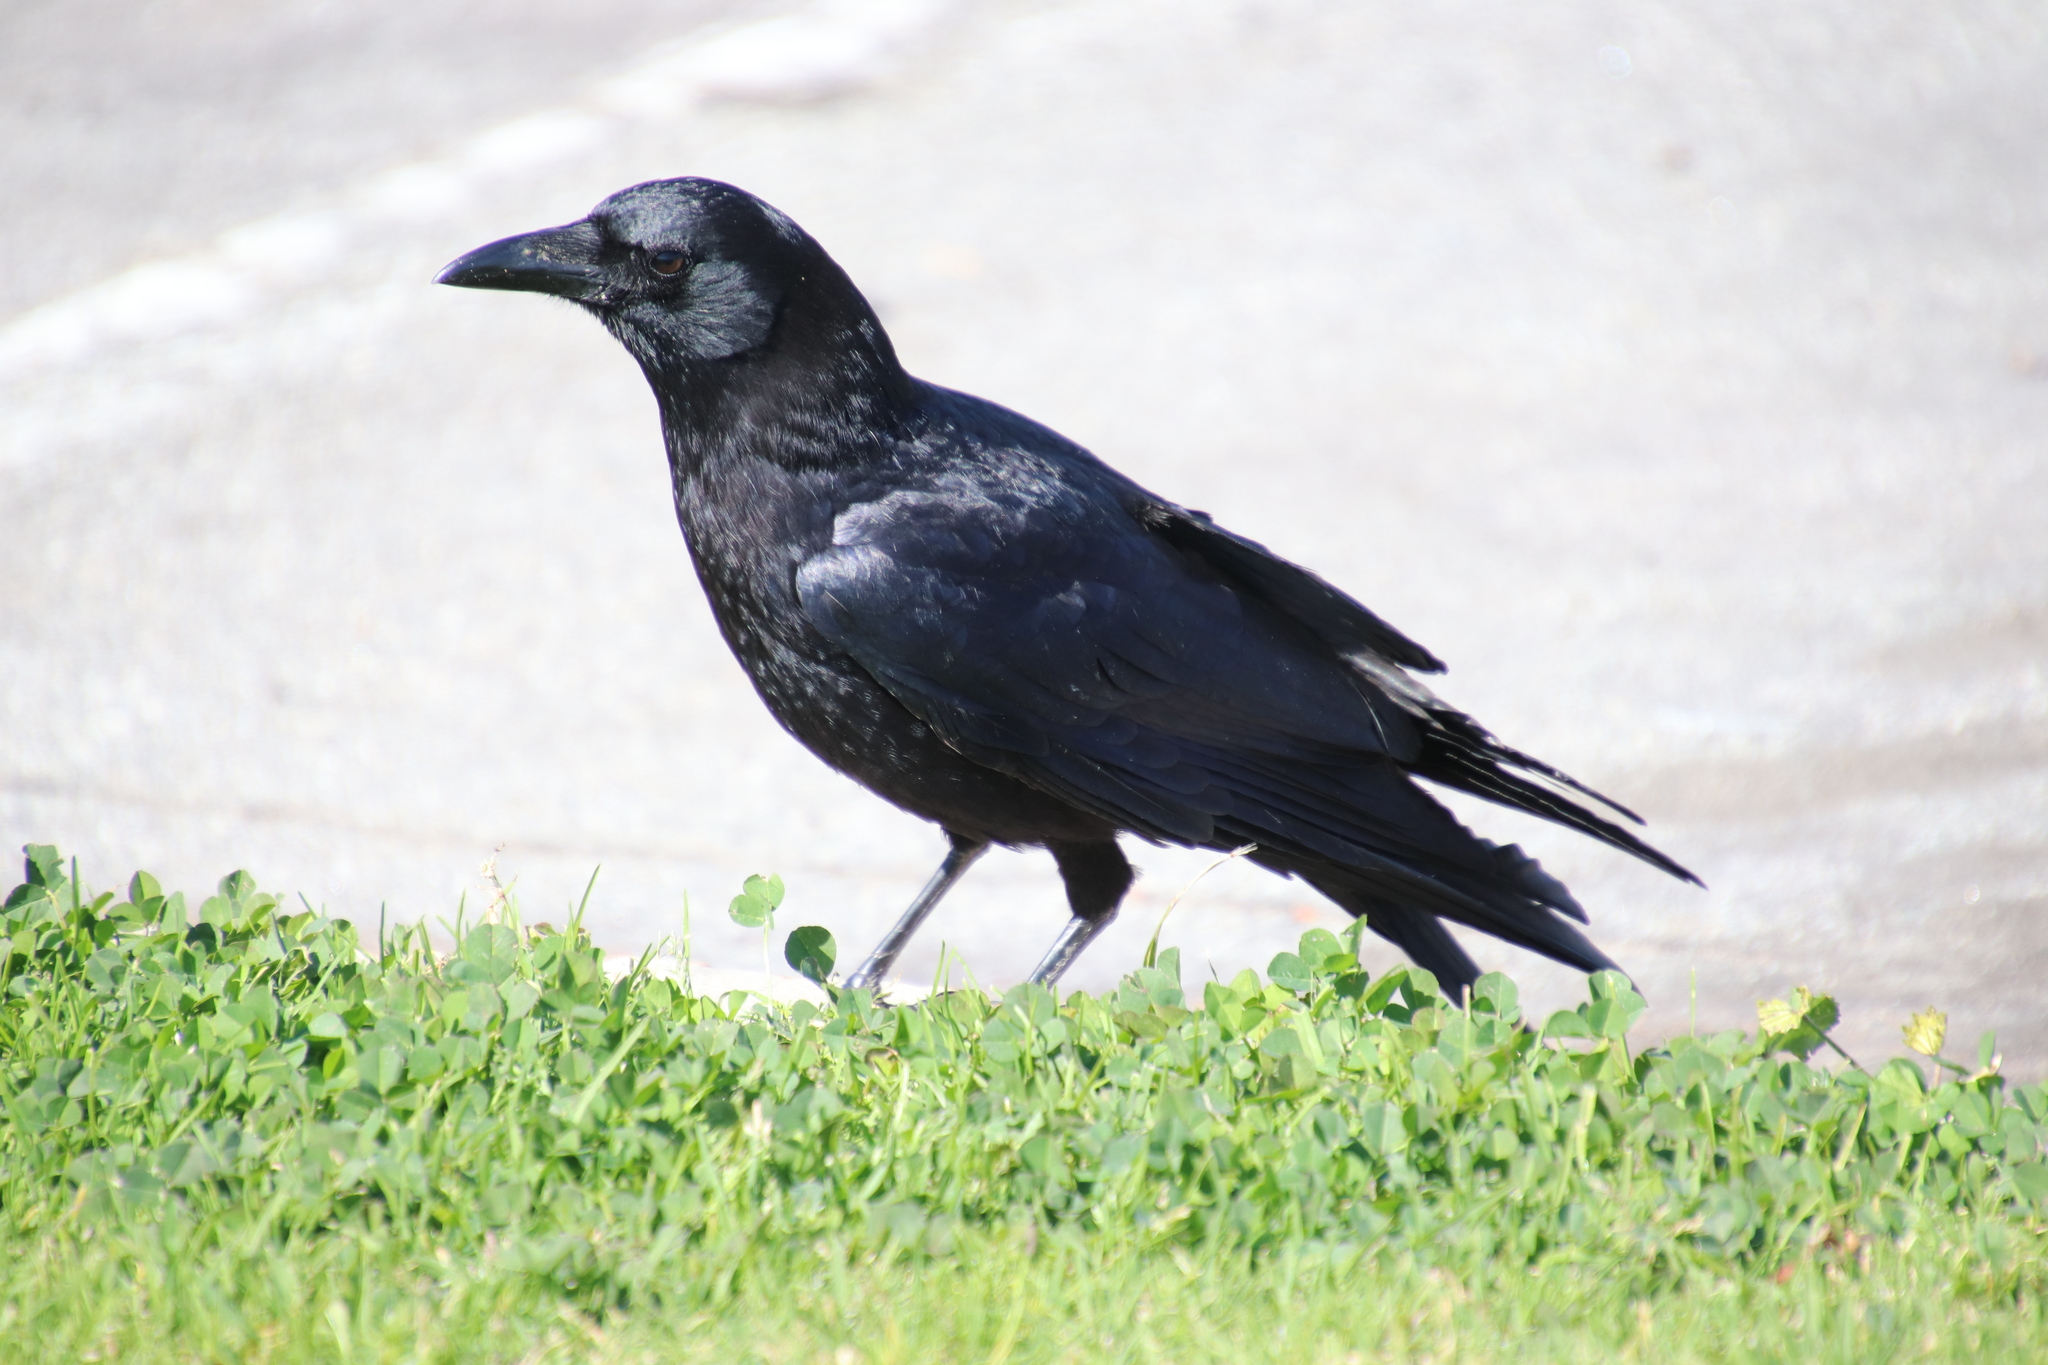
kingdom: Animalia
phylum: Chordata
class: Aves
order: Passeriformes
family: Corvidae
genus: Corvus
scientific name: Corvus brachyrhynchos
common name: American crow
